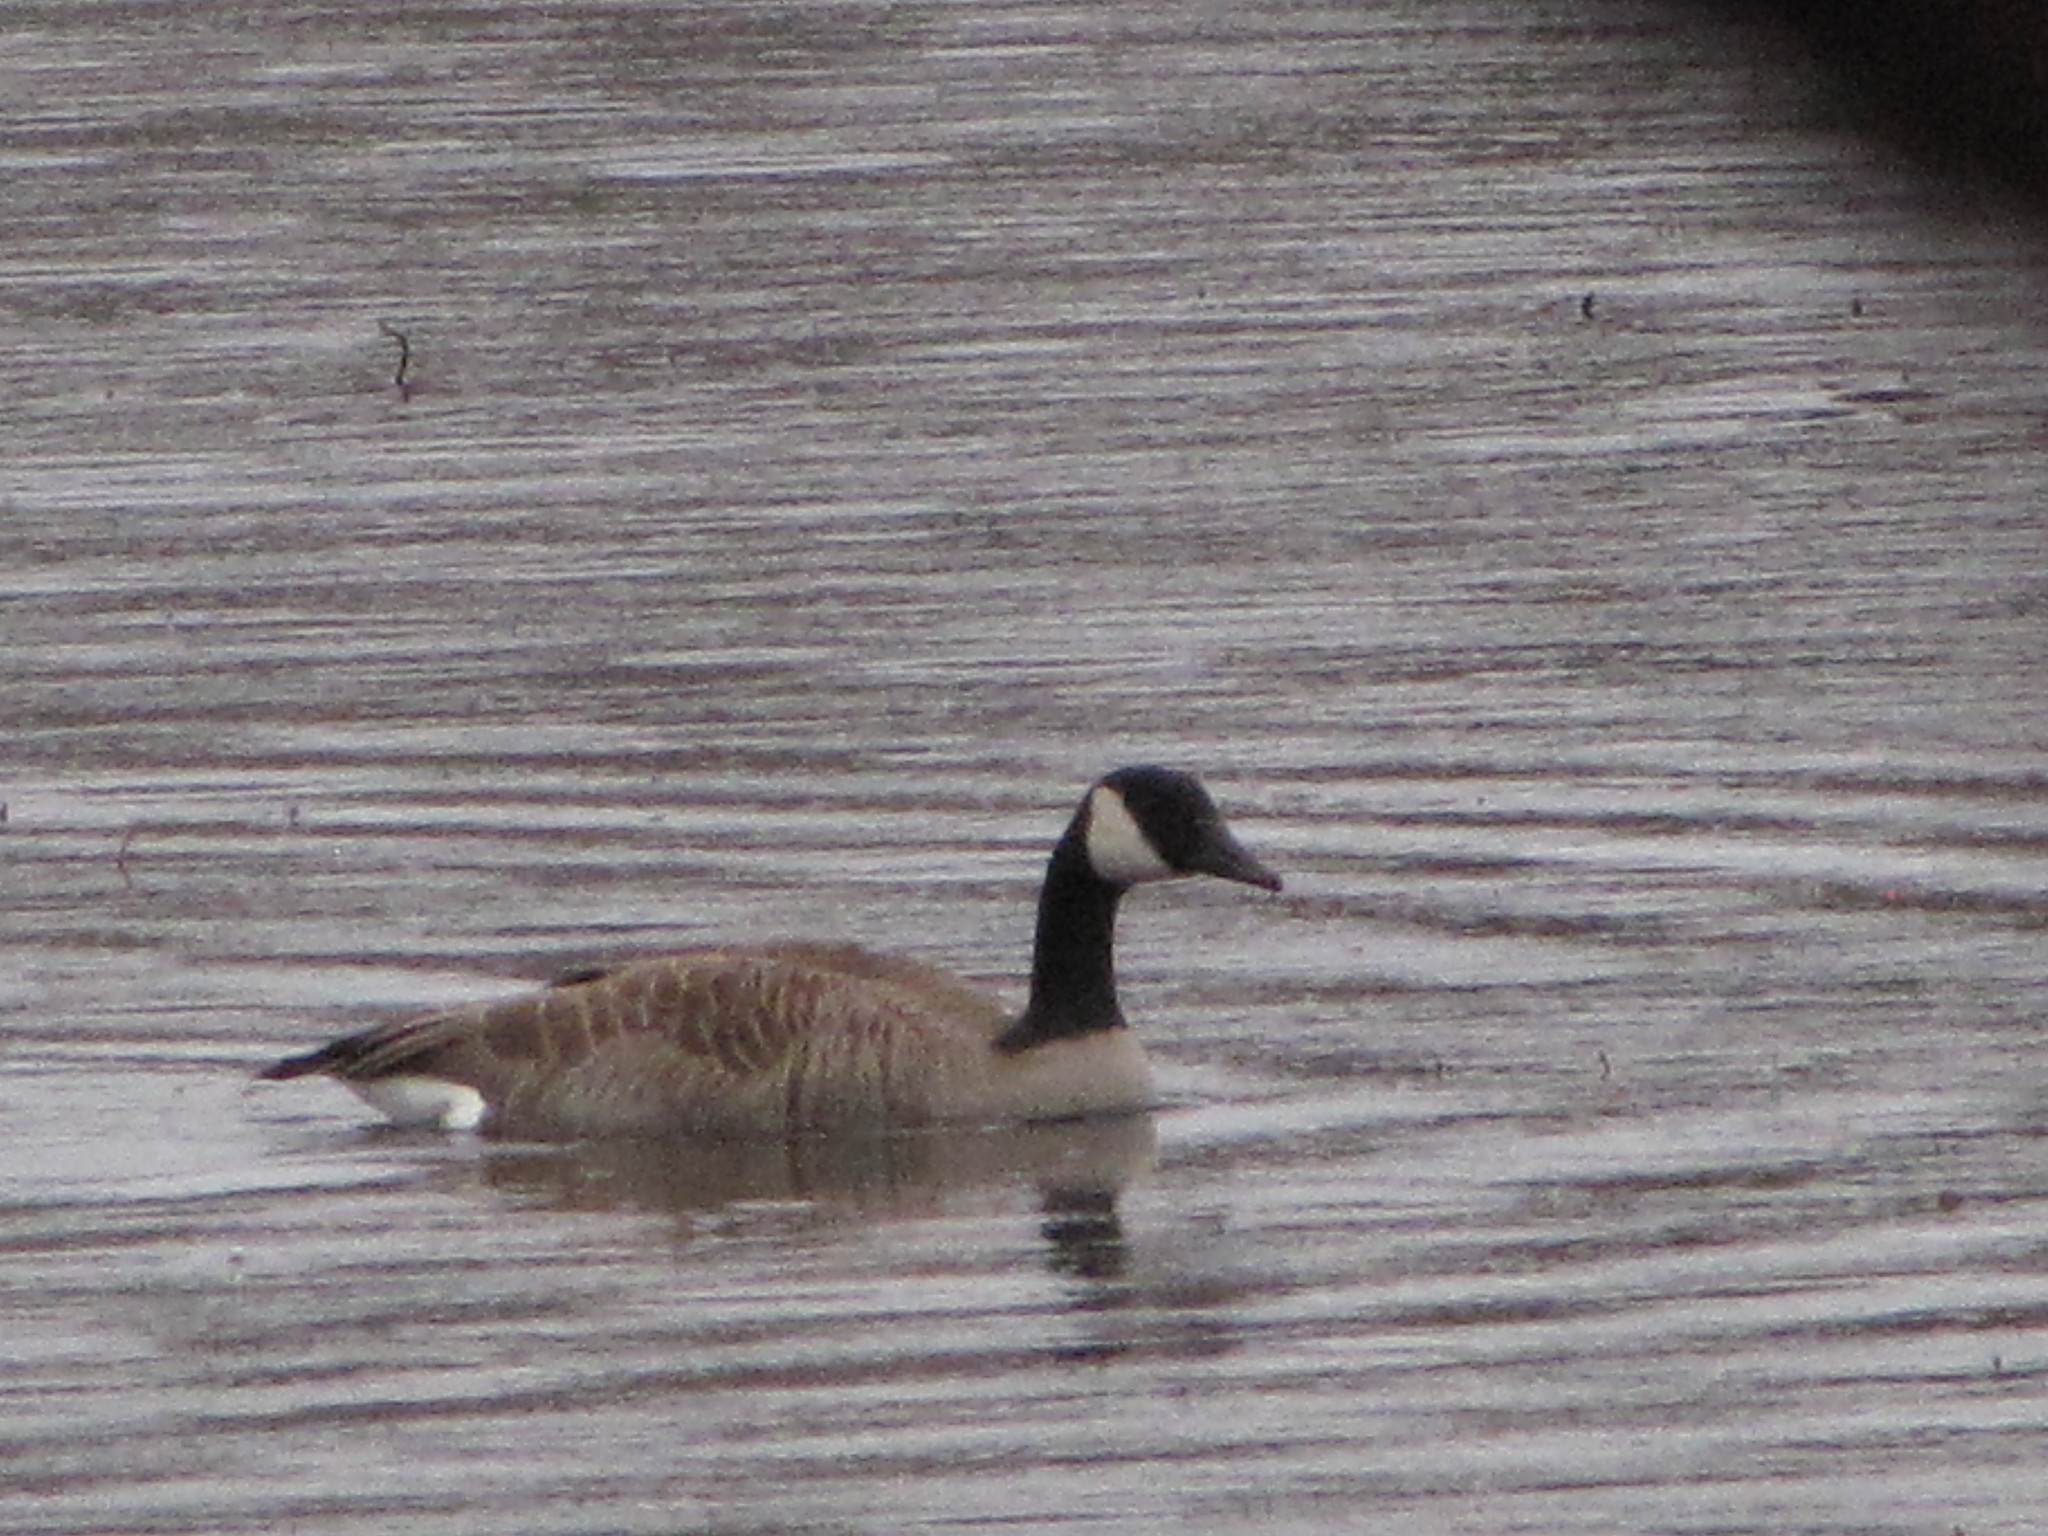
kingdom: Animalia
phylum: Chordata
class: Aves
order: Anseriformes
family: Anatidae
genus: Branta
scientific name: Branta canadensis
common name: Canada goose
